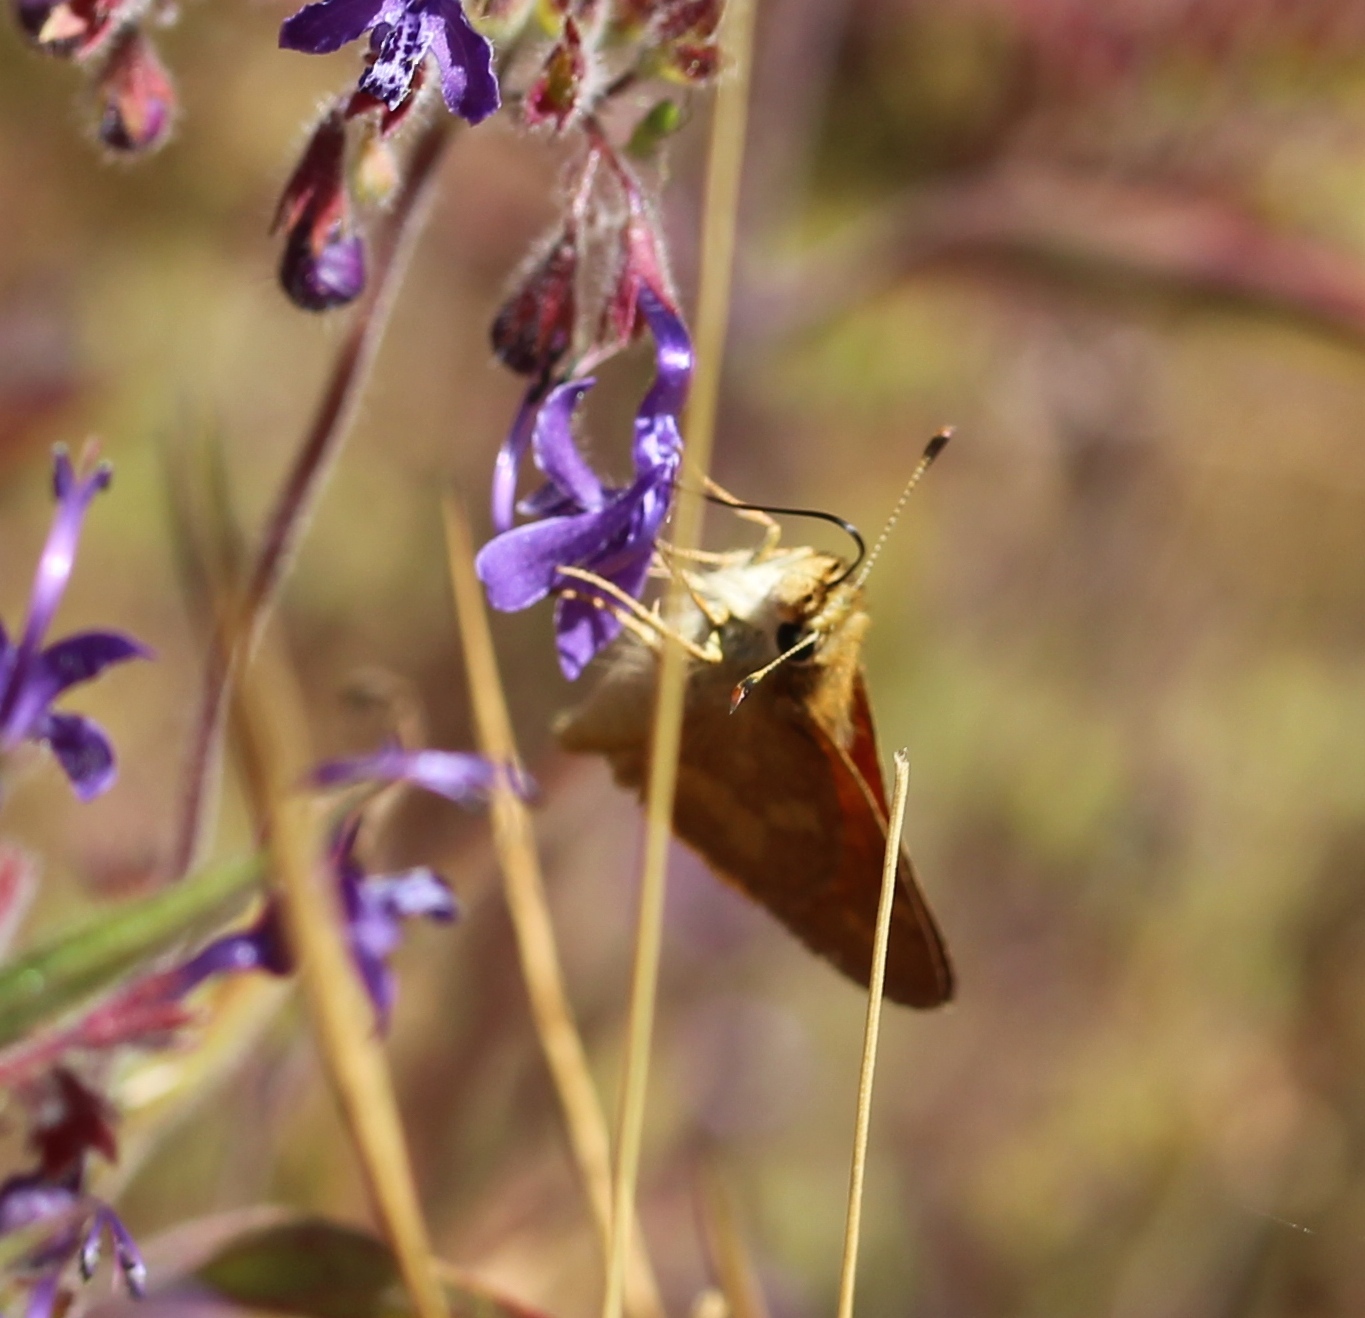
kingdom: Animalia
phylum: Arthropoda
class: Insecta
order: Lepidoptera
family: Hesperiidae
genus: Ochlodes
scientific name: Ochlodes sylvanoides
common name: Woodland skipper
